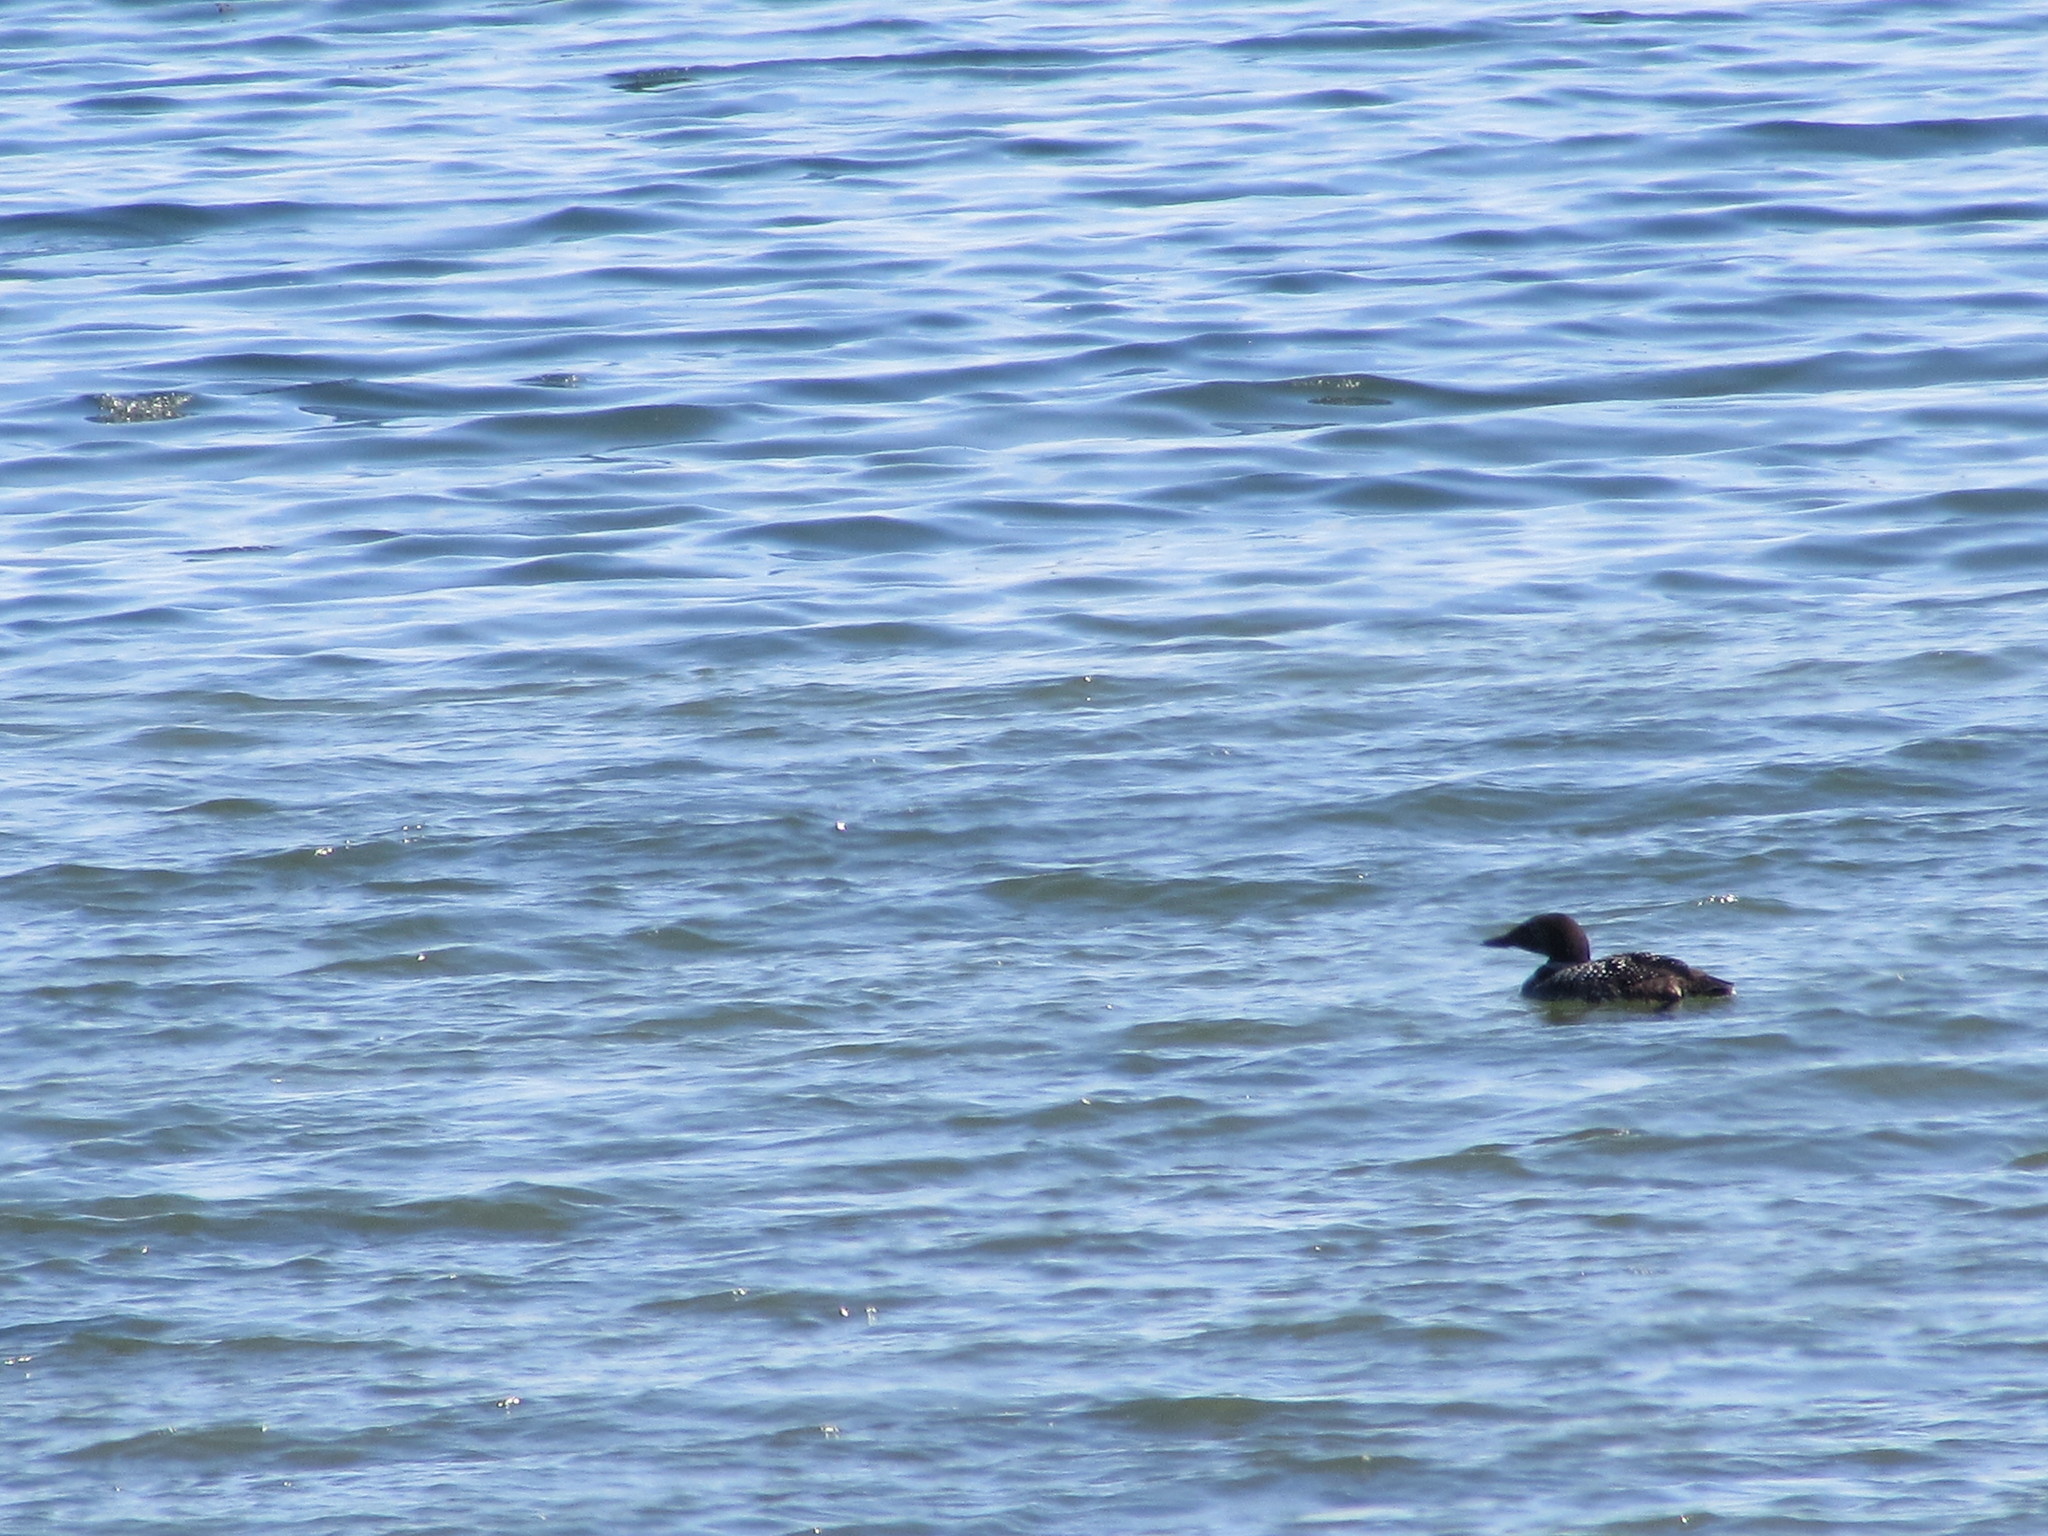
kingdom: Animalia
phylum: Chordata
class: Aves
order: Gaviiformes
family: Gaviidae
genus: Gavia
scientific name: Gavia immer
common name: Common loon
